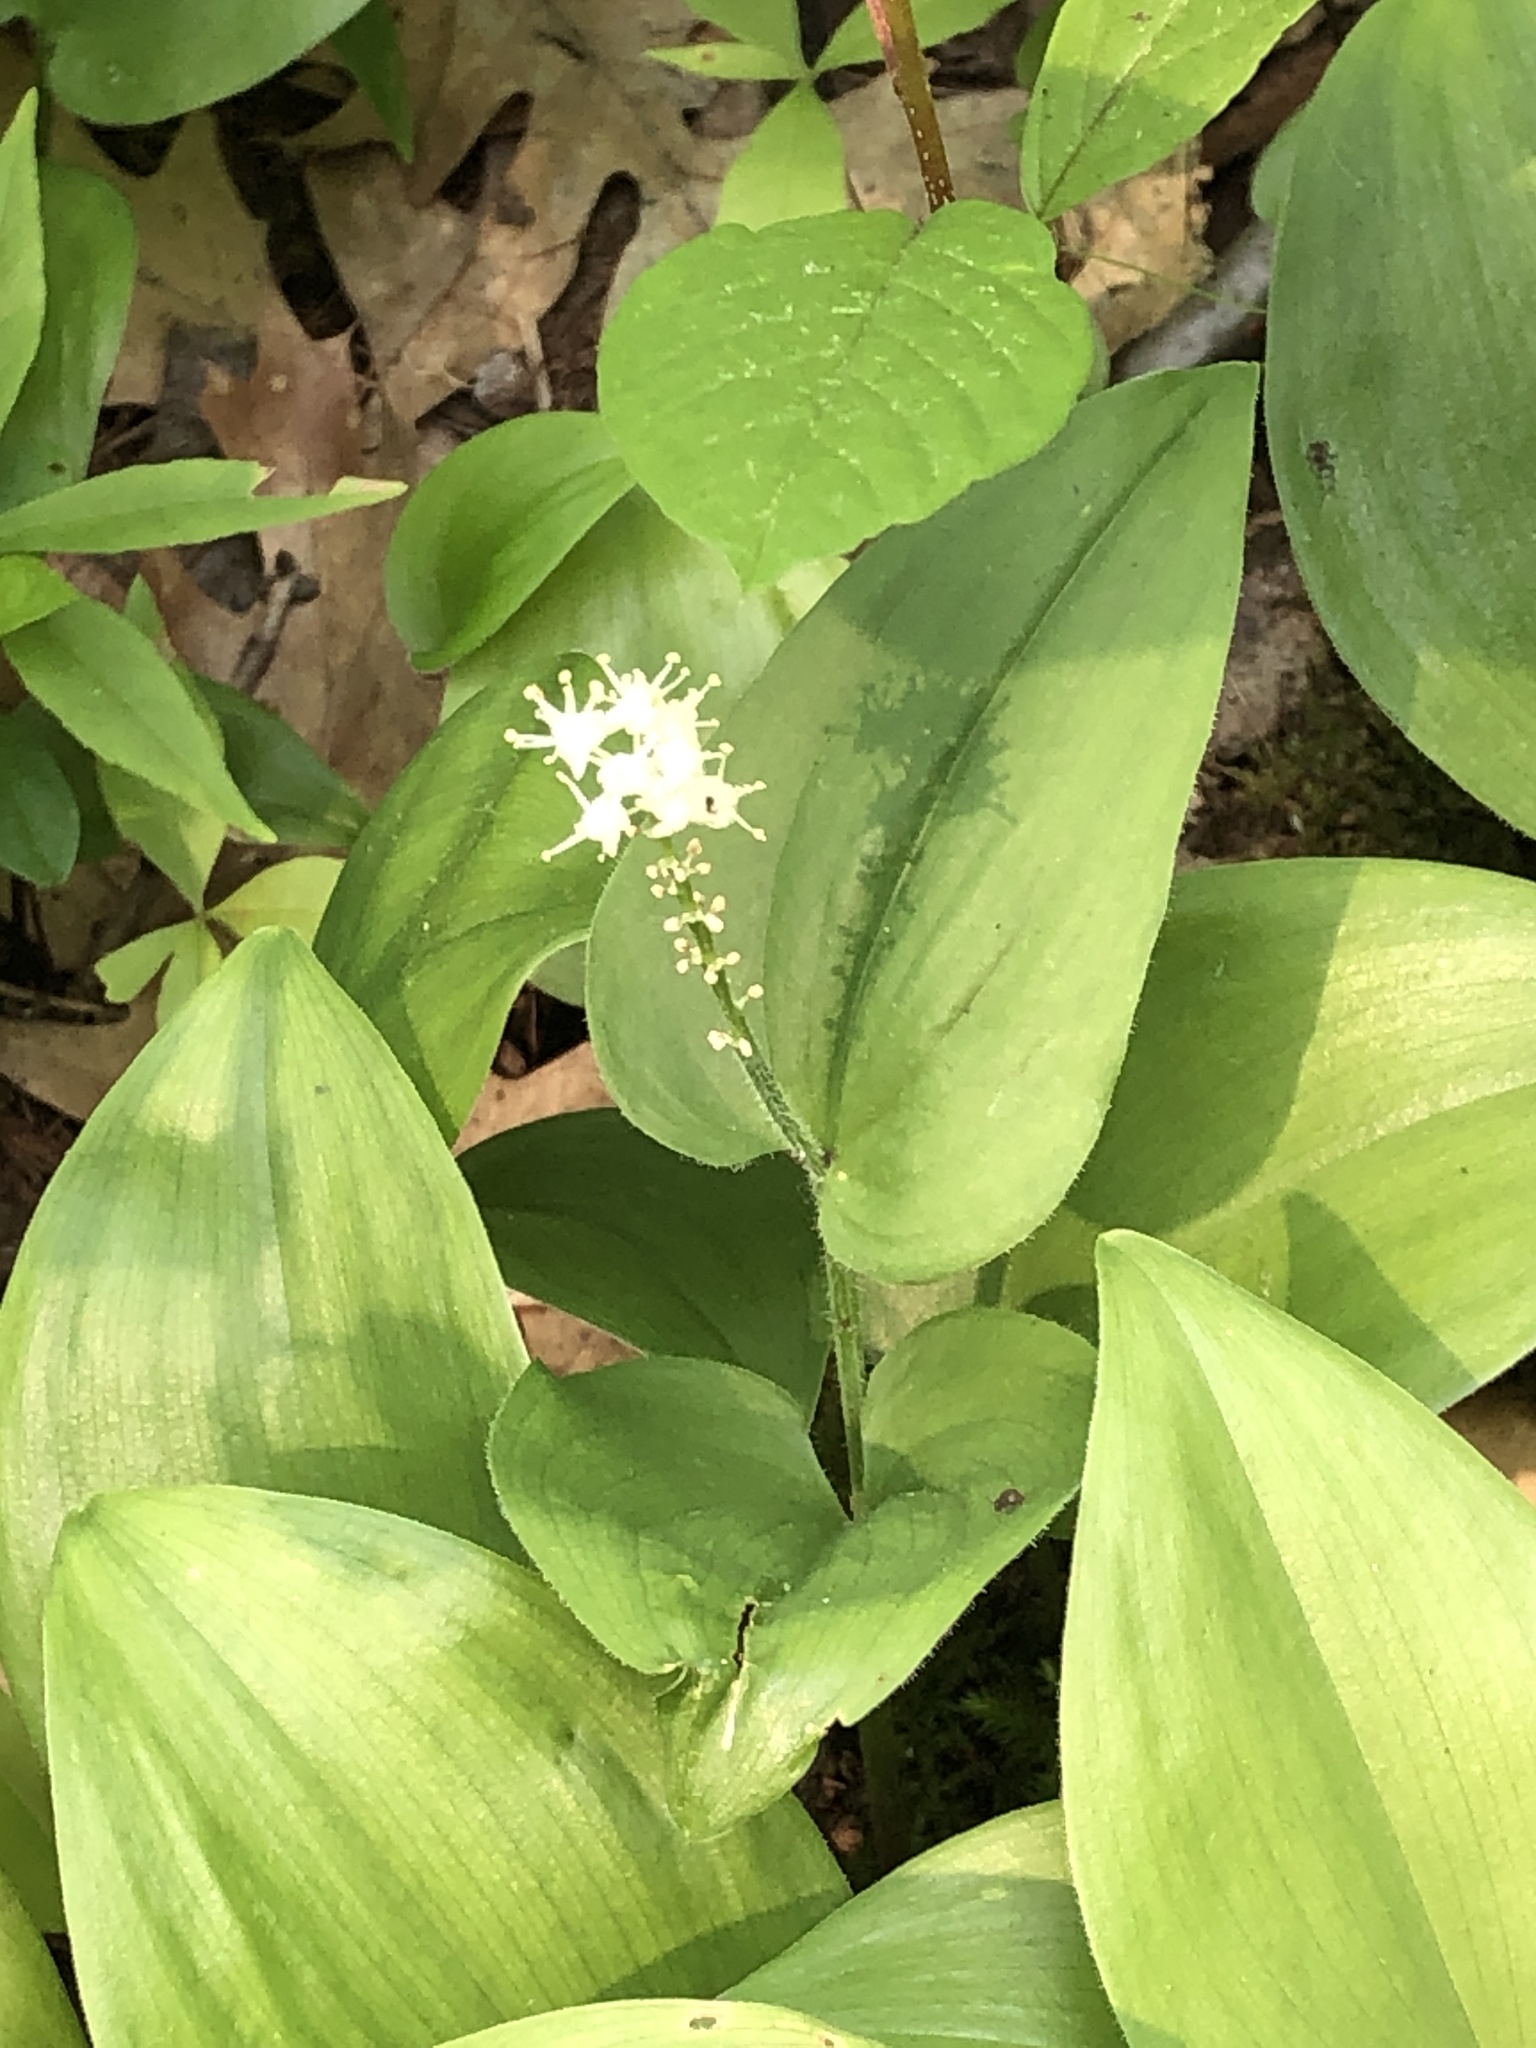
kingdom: Plantae
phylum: Tracheophyta
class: Liliopsida
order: Asparagales
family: Asparagaceae
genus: Maianthemum
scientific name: Maianthemum canadense
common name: False lily-of-the-valley
